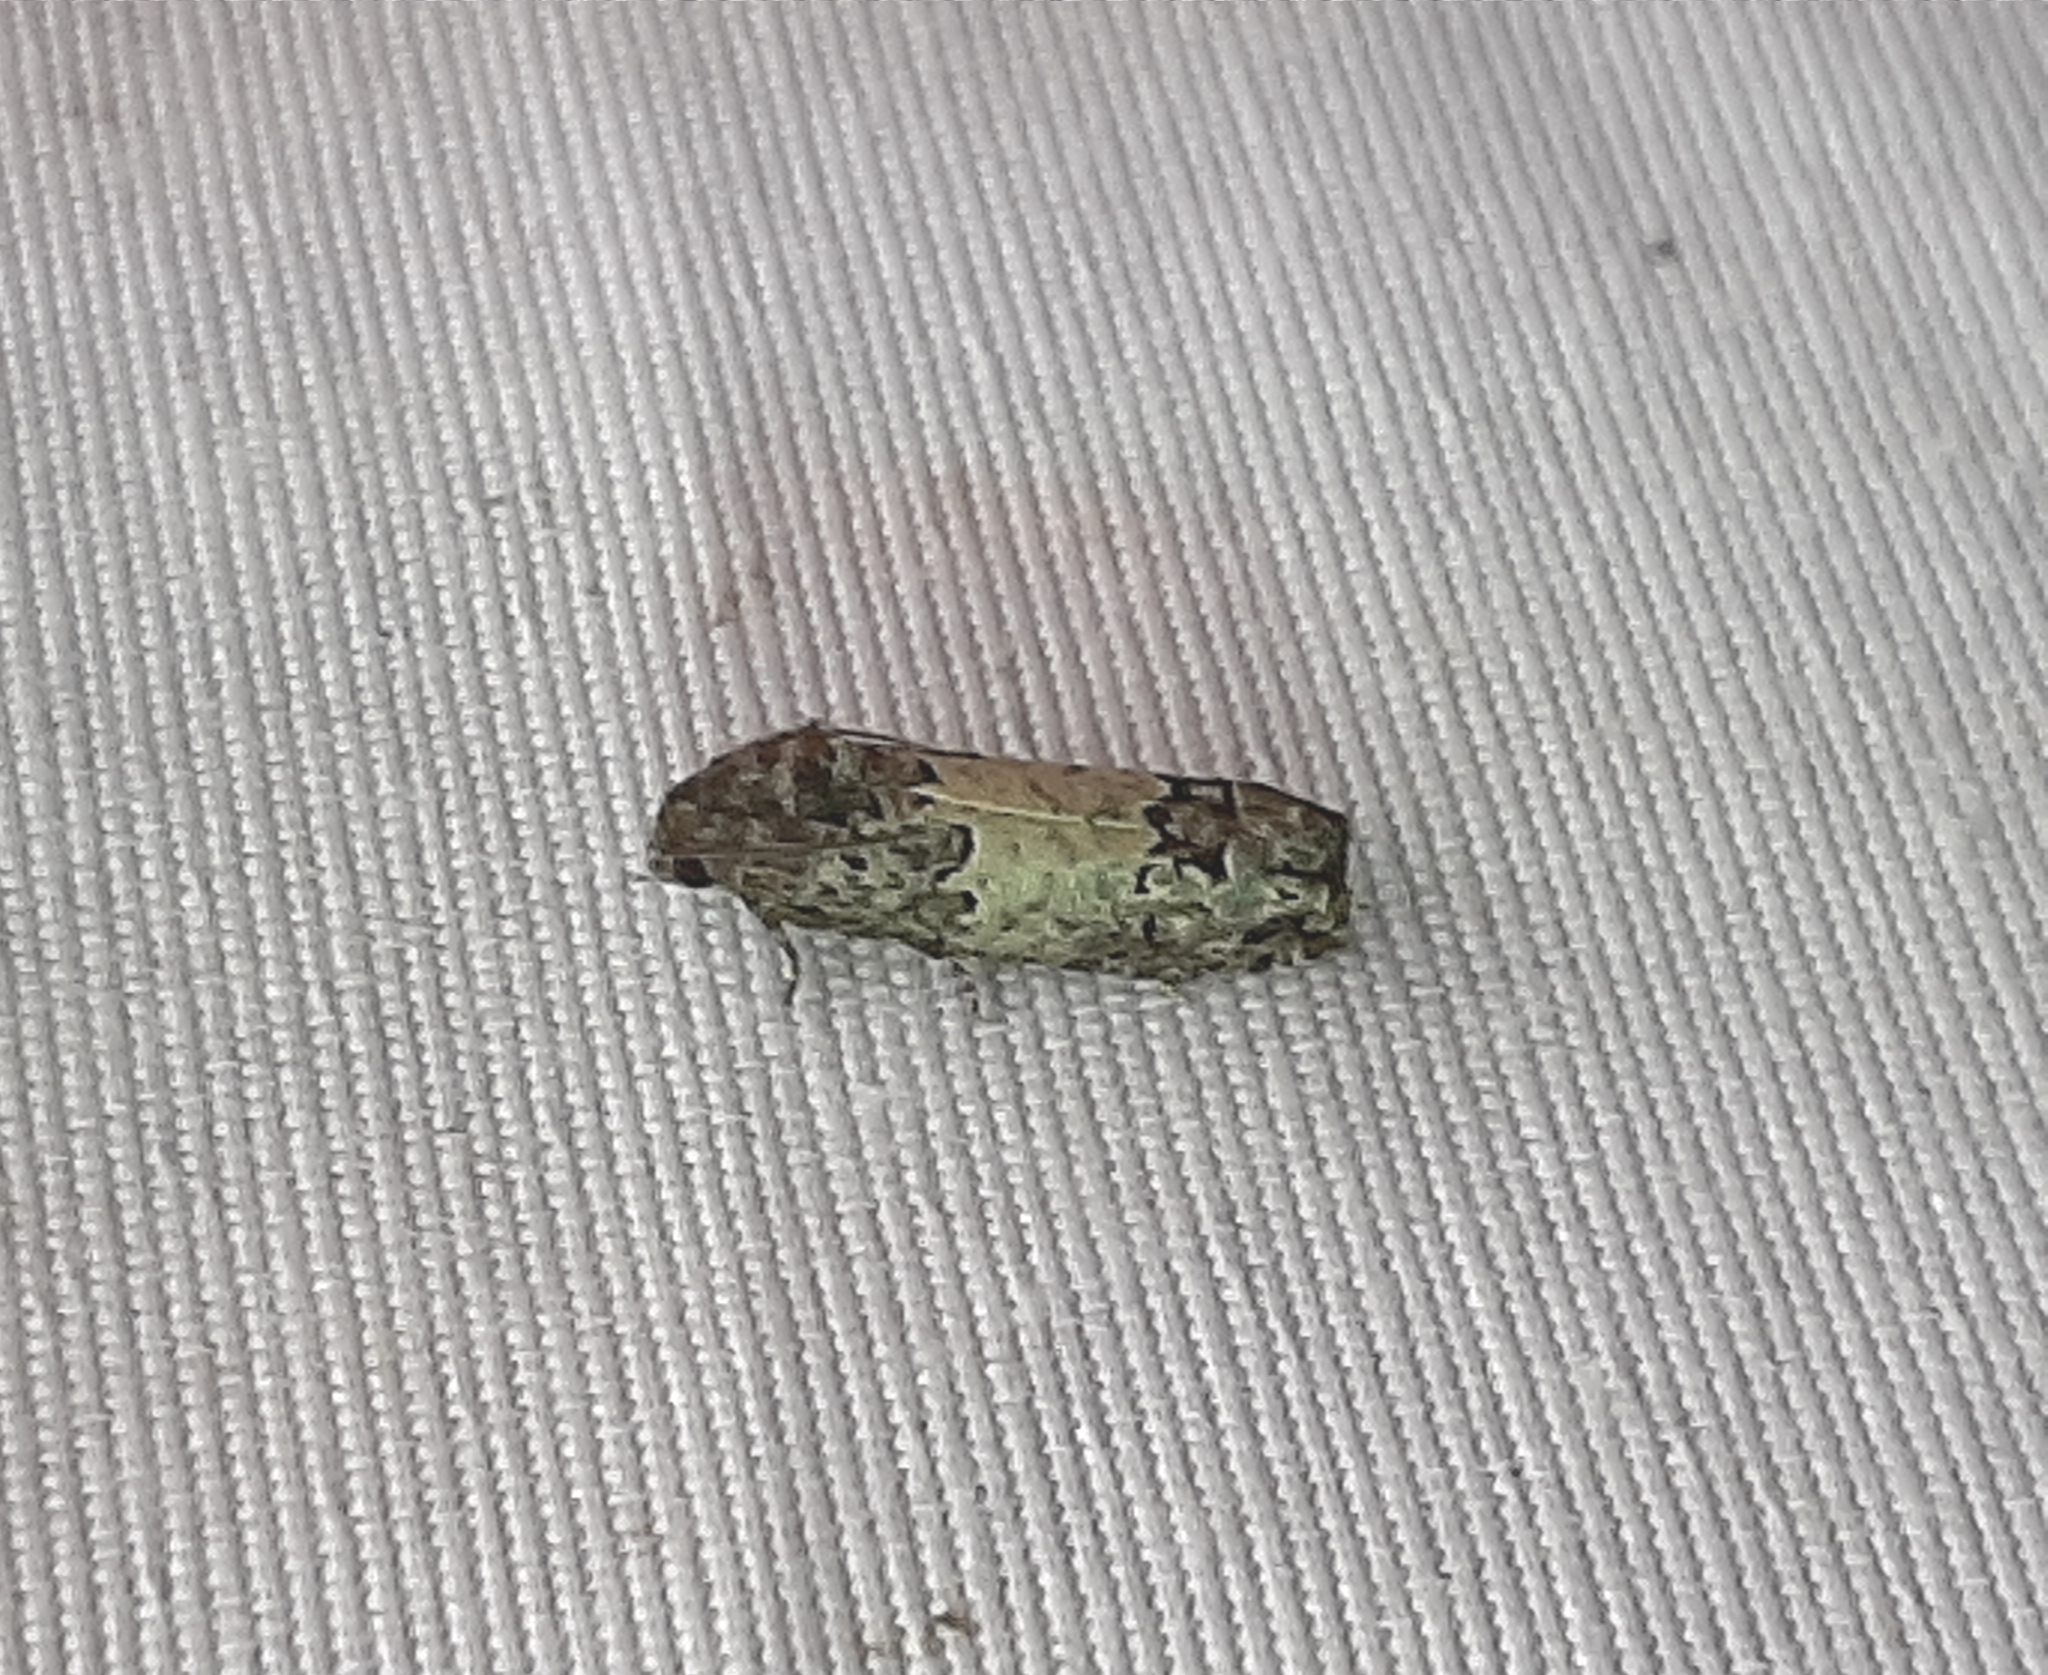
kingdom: Animalia
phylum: Arthropoda
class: Insecta
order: Lepidoptera
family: Tortricidae
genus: Epiblema
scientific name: Epiblema carolinana
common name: Gray-blotched epiblema moth
